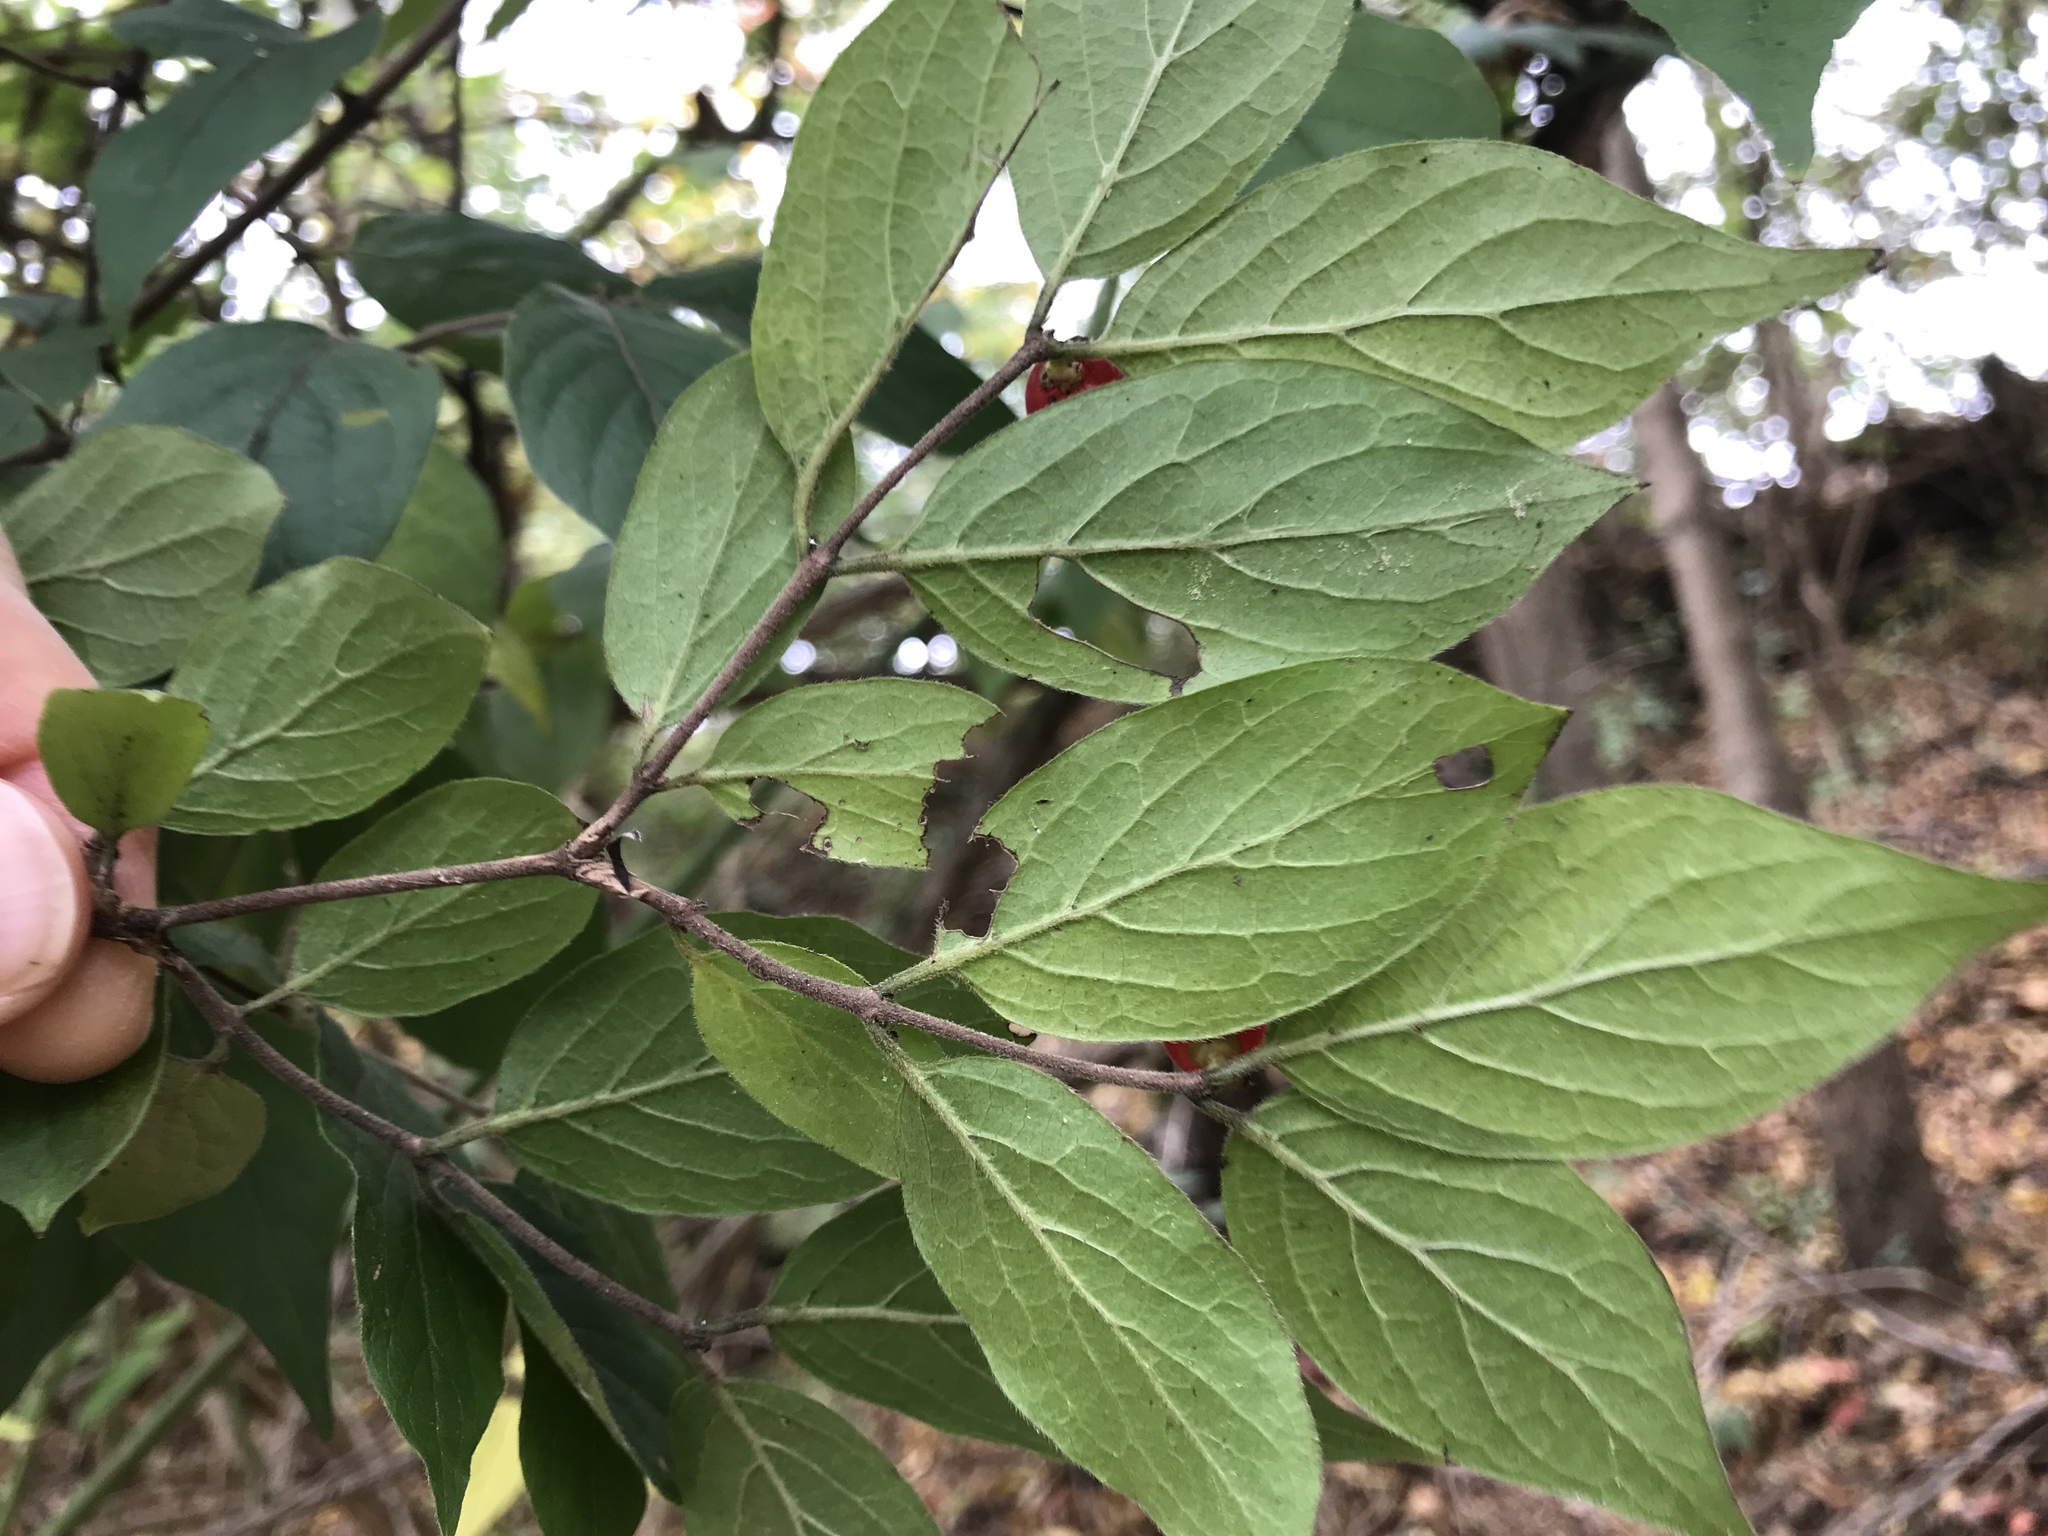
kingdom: Plantae
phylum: Tracheophyta
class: Magnoliopsida
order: Dipsacales
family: Caprifoliaceae
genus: Lonicera
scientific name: Lonicera maackii
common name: Amur honeysuckle
